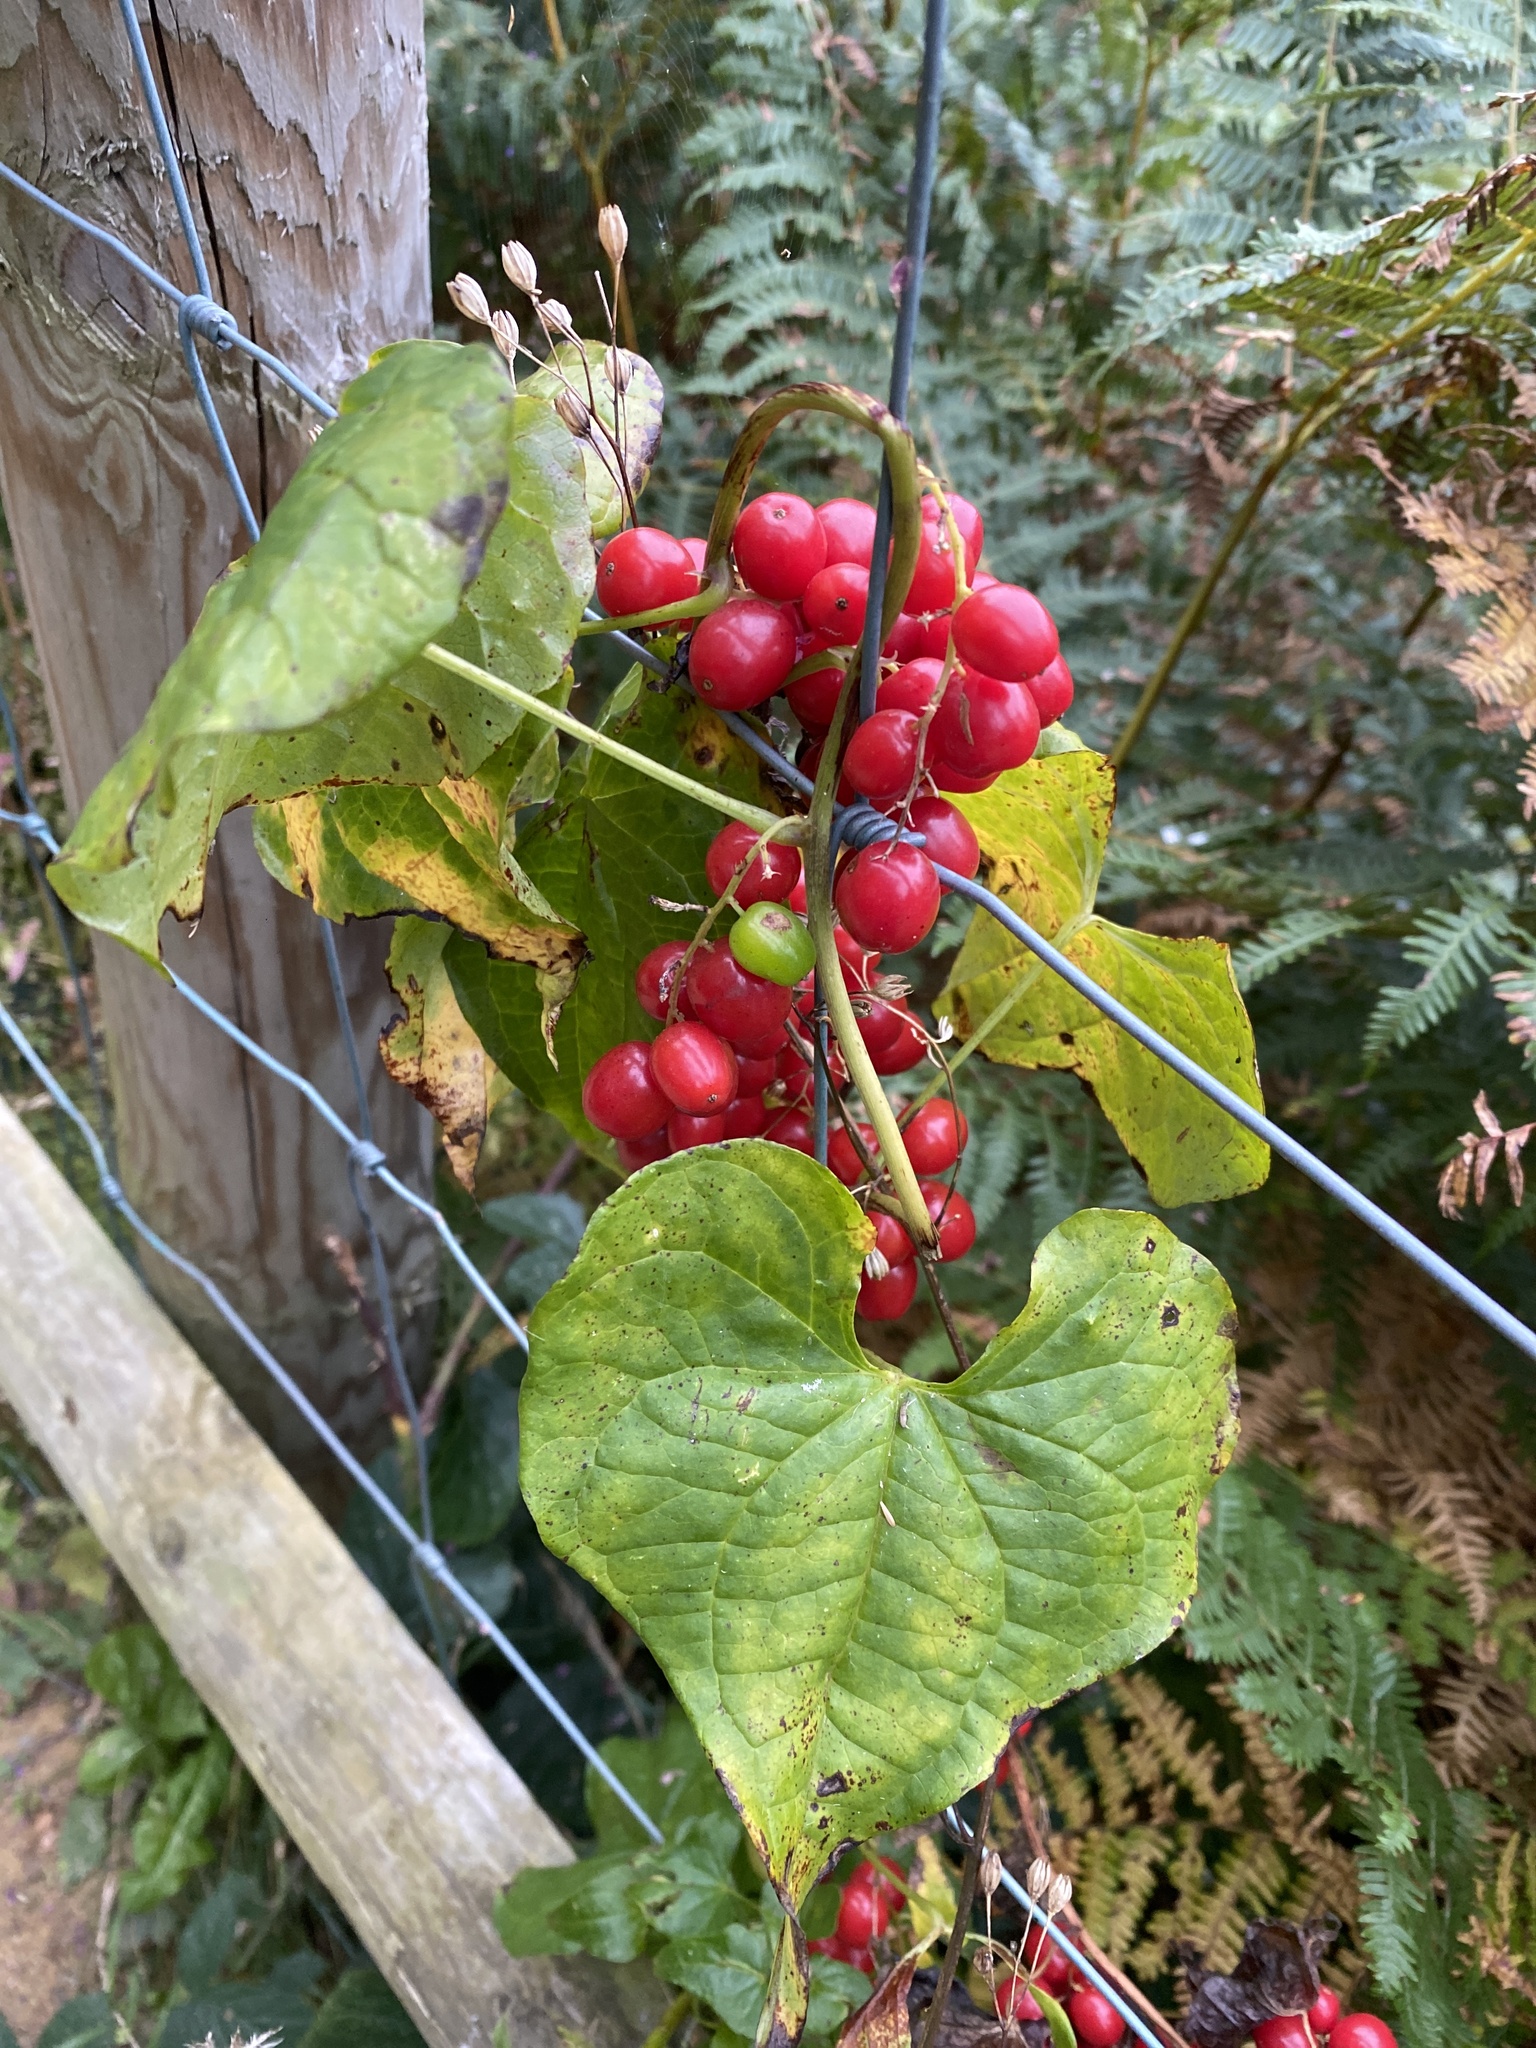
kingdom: Plantae
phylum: Tracheophyta
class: Liliopsida
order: Dioscoreales
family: Dioscoreaceae
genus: Dioscorea
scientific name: Dioscorea communis
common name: Black-bindweed
